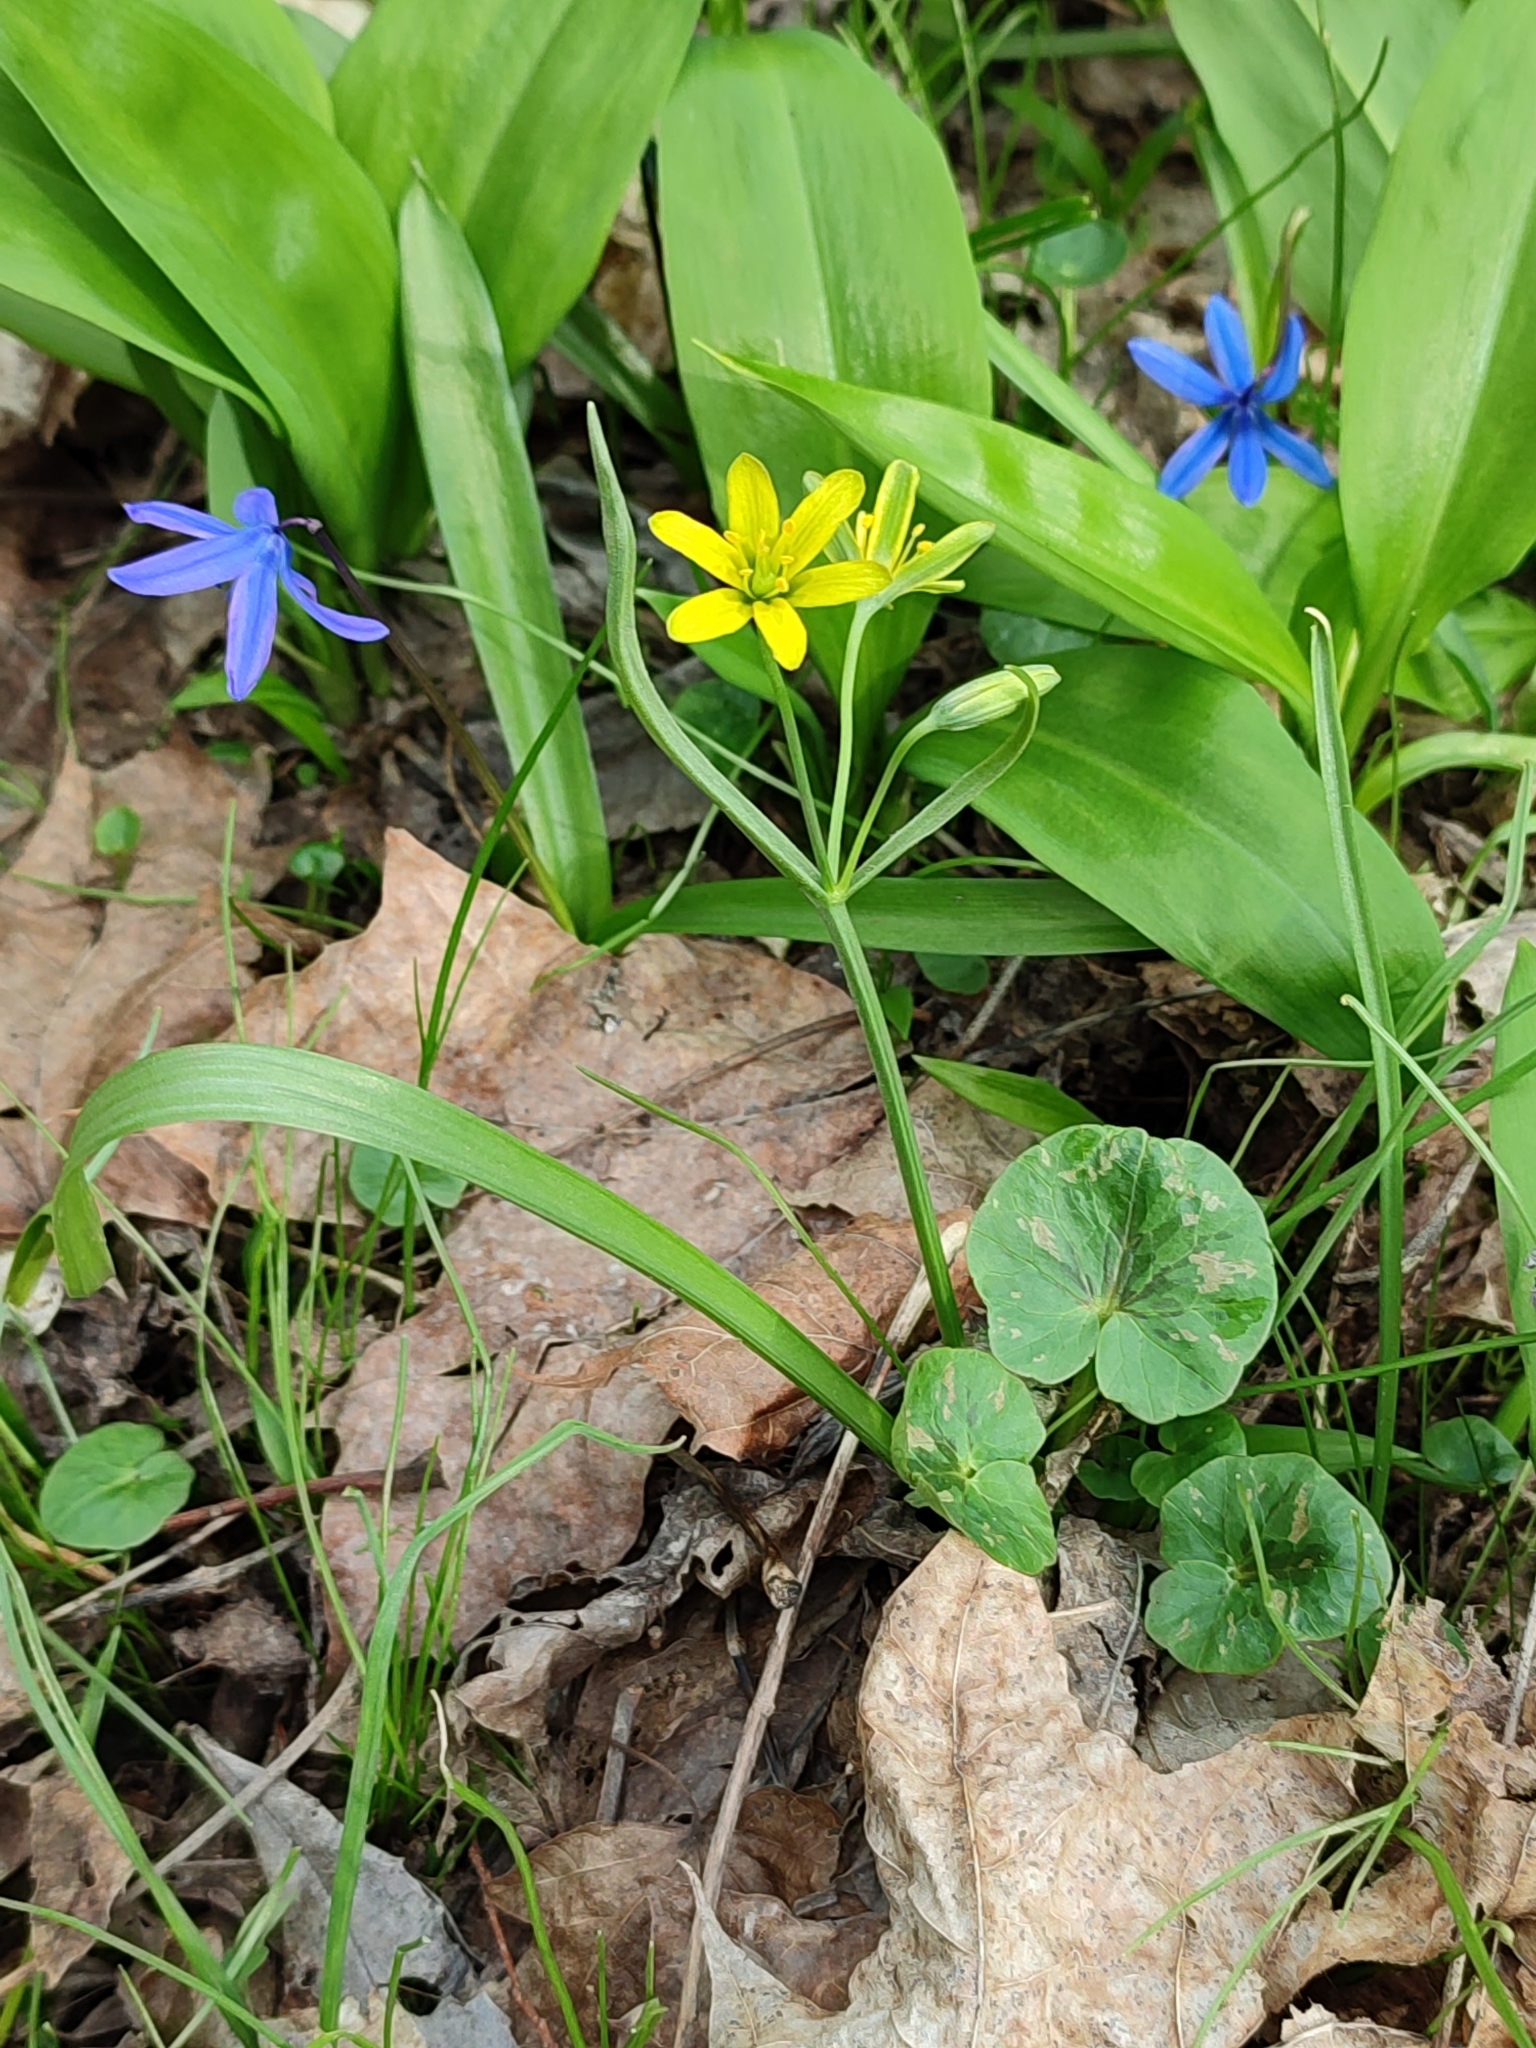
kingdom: Plantae
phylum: Tracheophyta
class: Liliopsida
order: Liliales
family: Liliaceae
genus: Gagea
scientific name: Gagea lutea
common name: Yellow star-of-bethlehem
